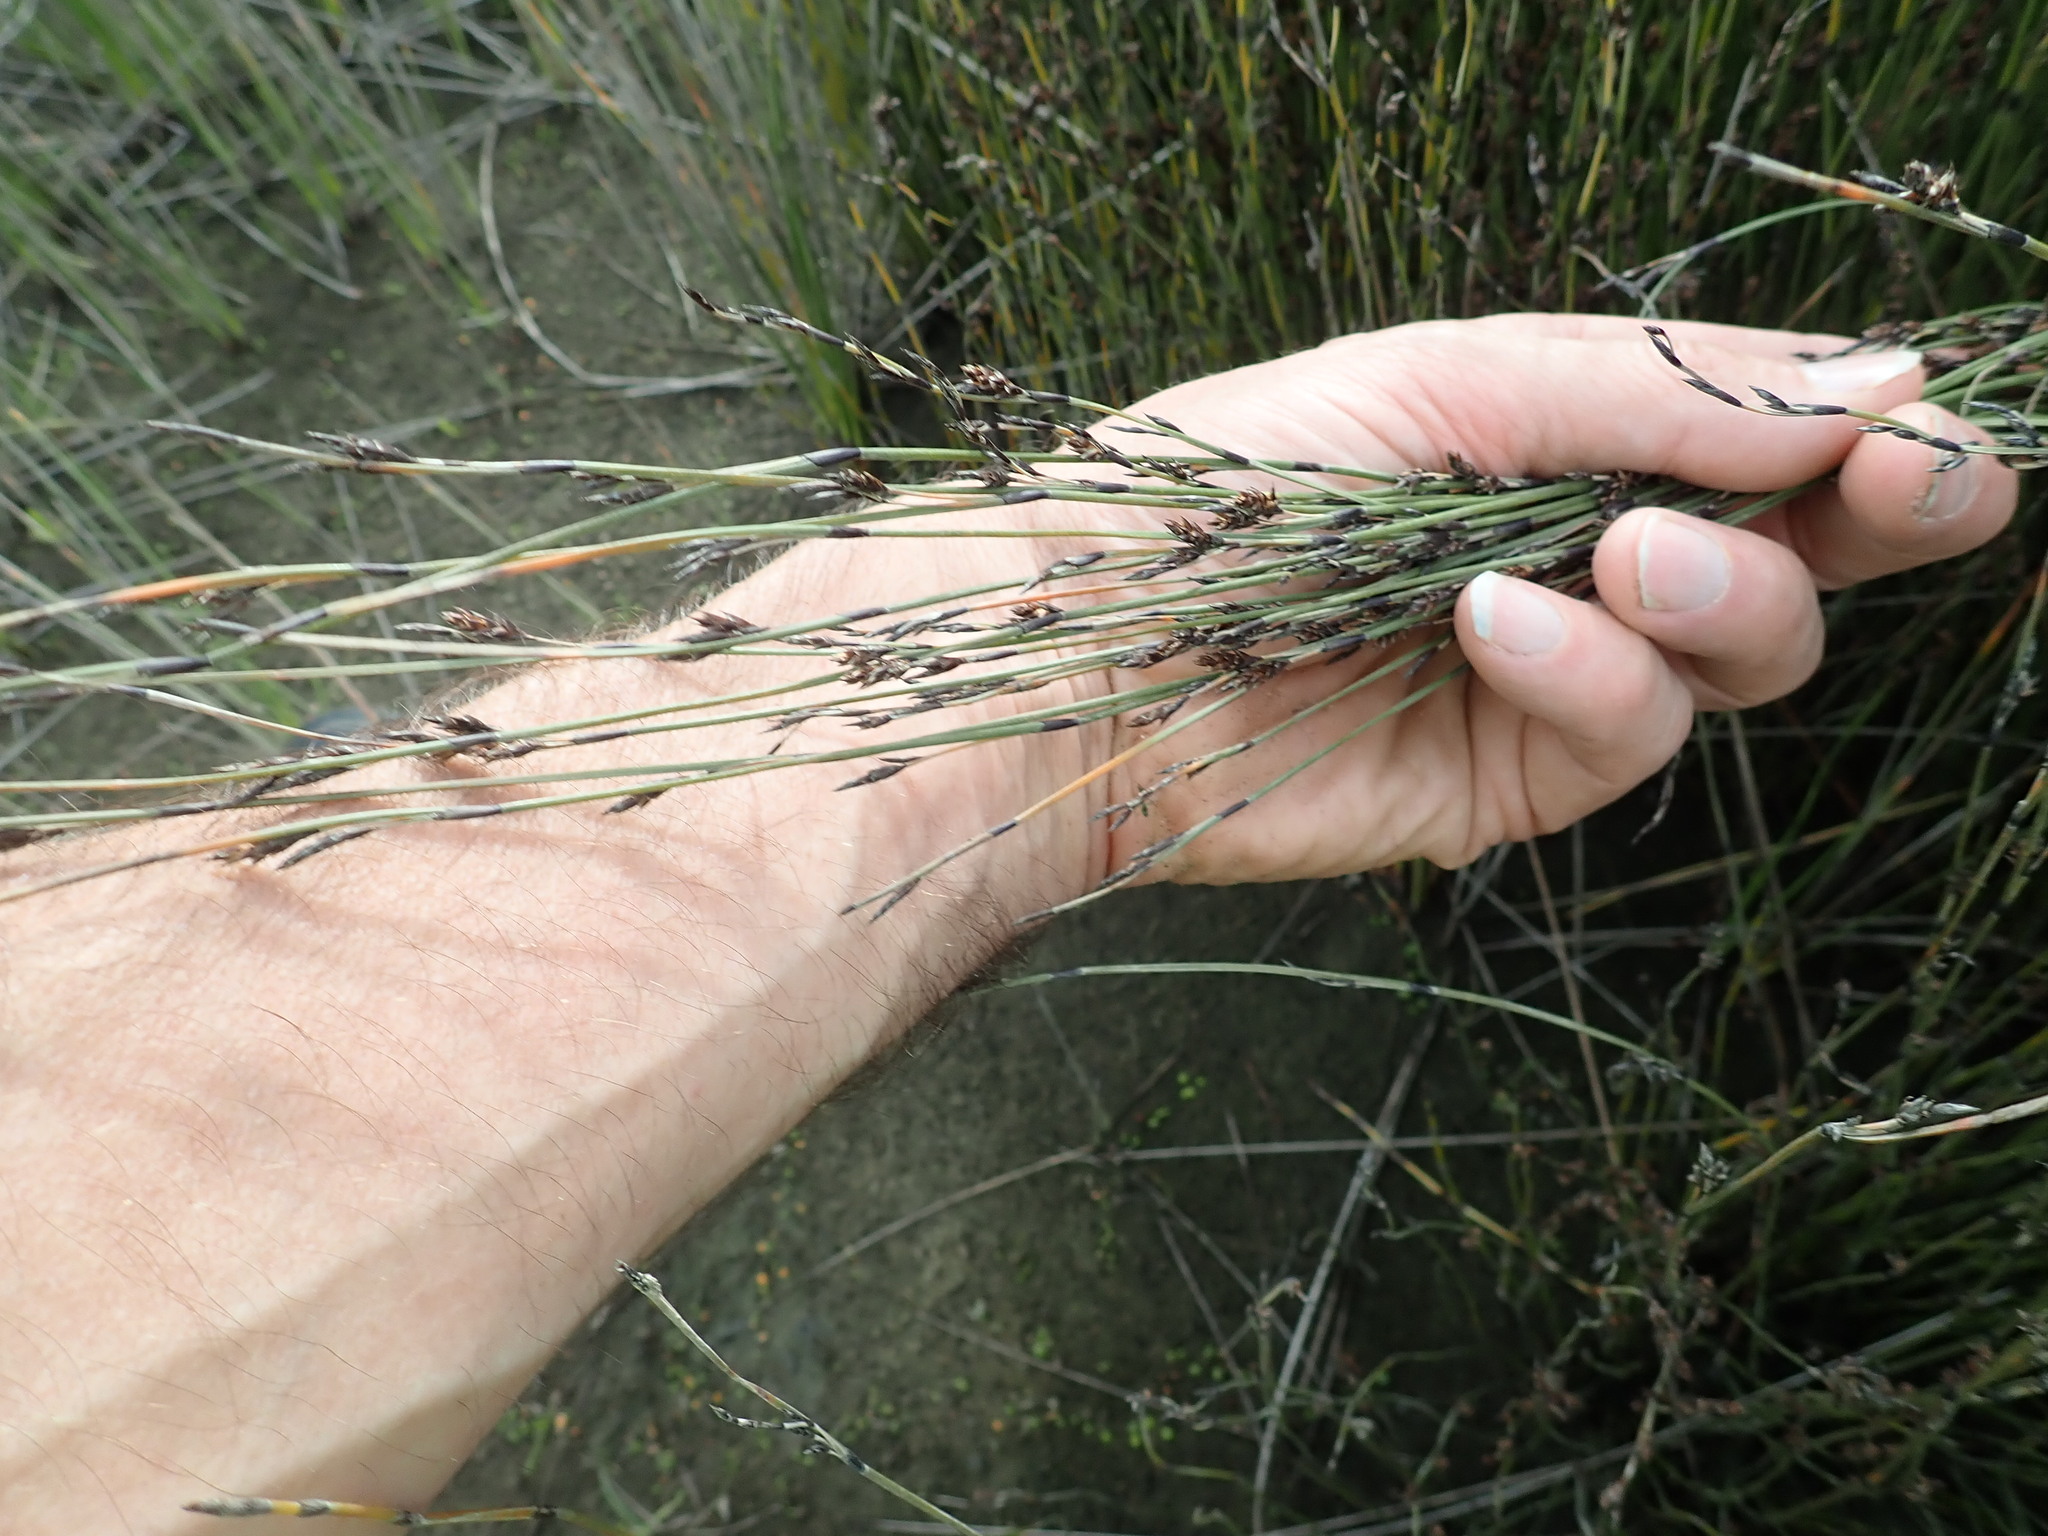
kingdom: Plantae
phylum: Tracheophyta
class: Liliopsida
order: Poales
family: Restionaceae
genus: Apodasmia
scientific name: Apodasmia similis
